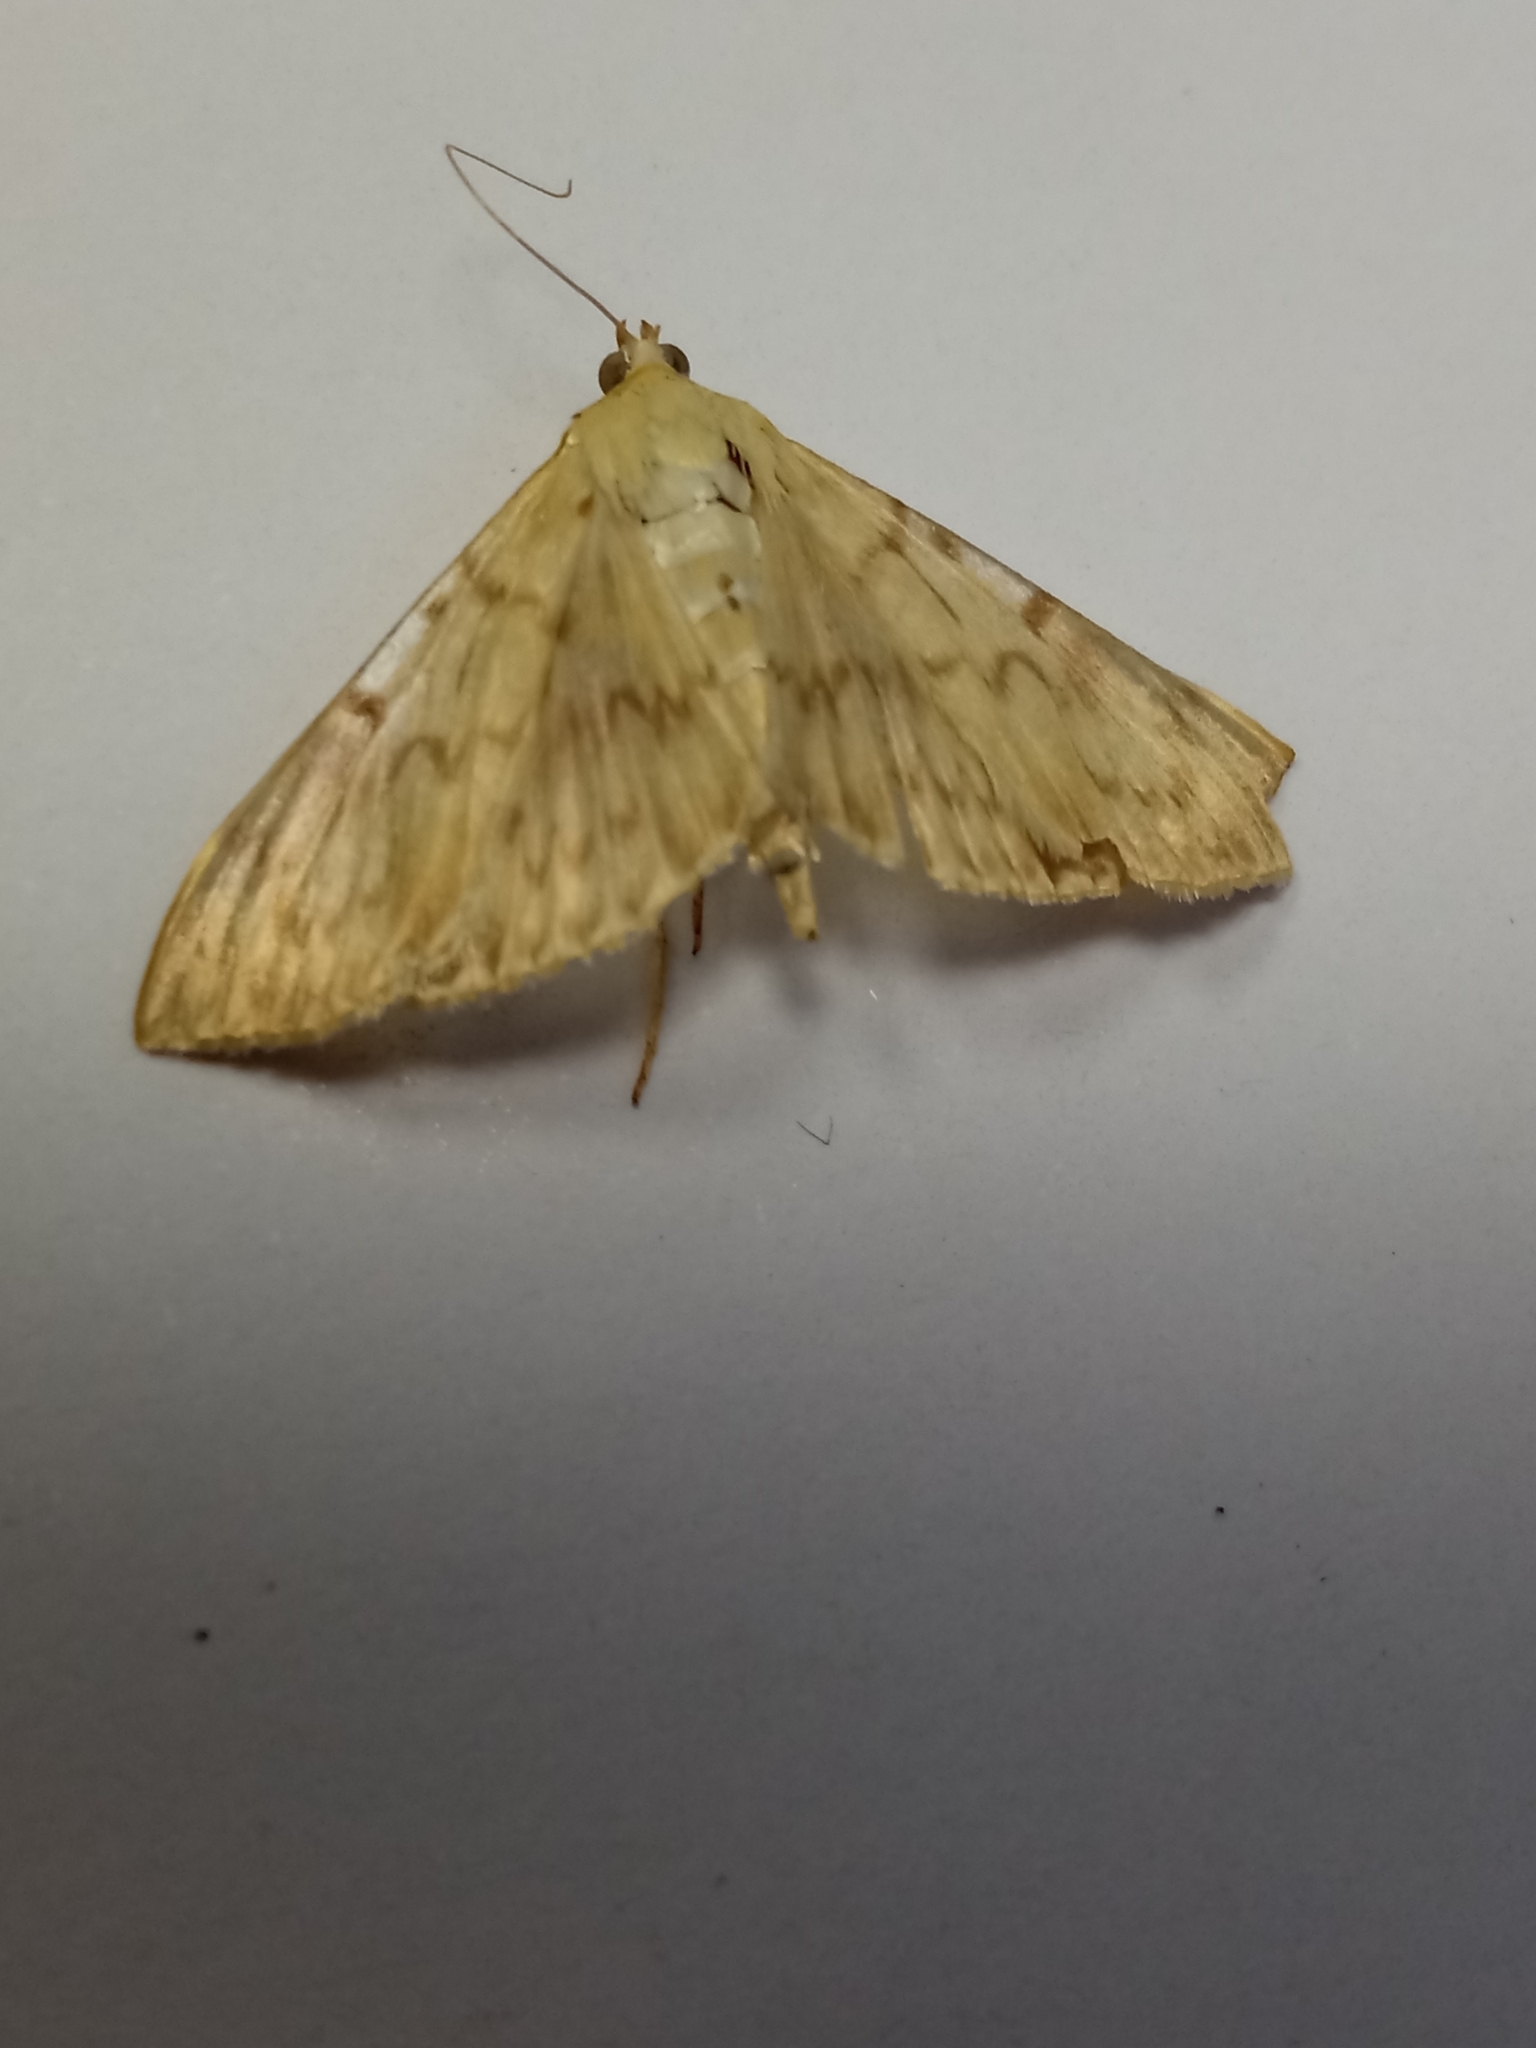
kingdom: Animalia
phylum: Arthropoda
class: Insecta
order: Lepidoptera
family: Crambidae
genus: Patania
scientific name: Patania ruralis
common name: Mother of pearl
